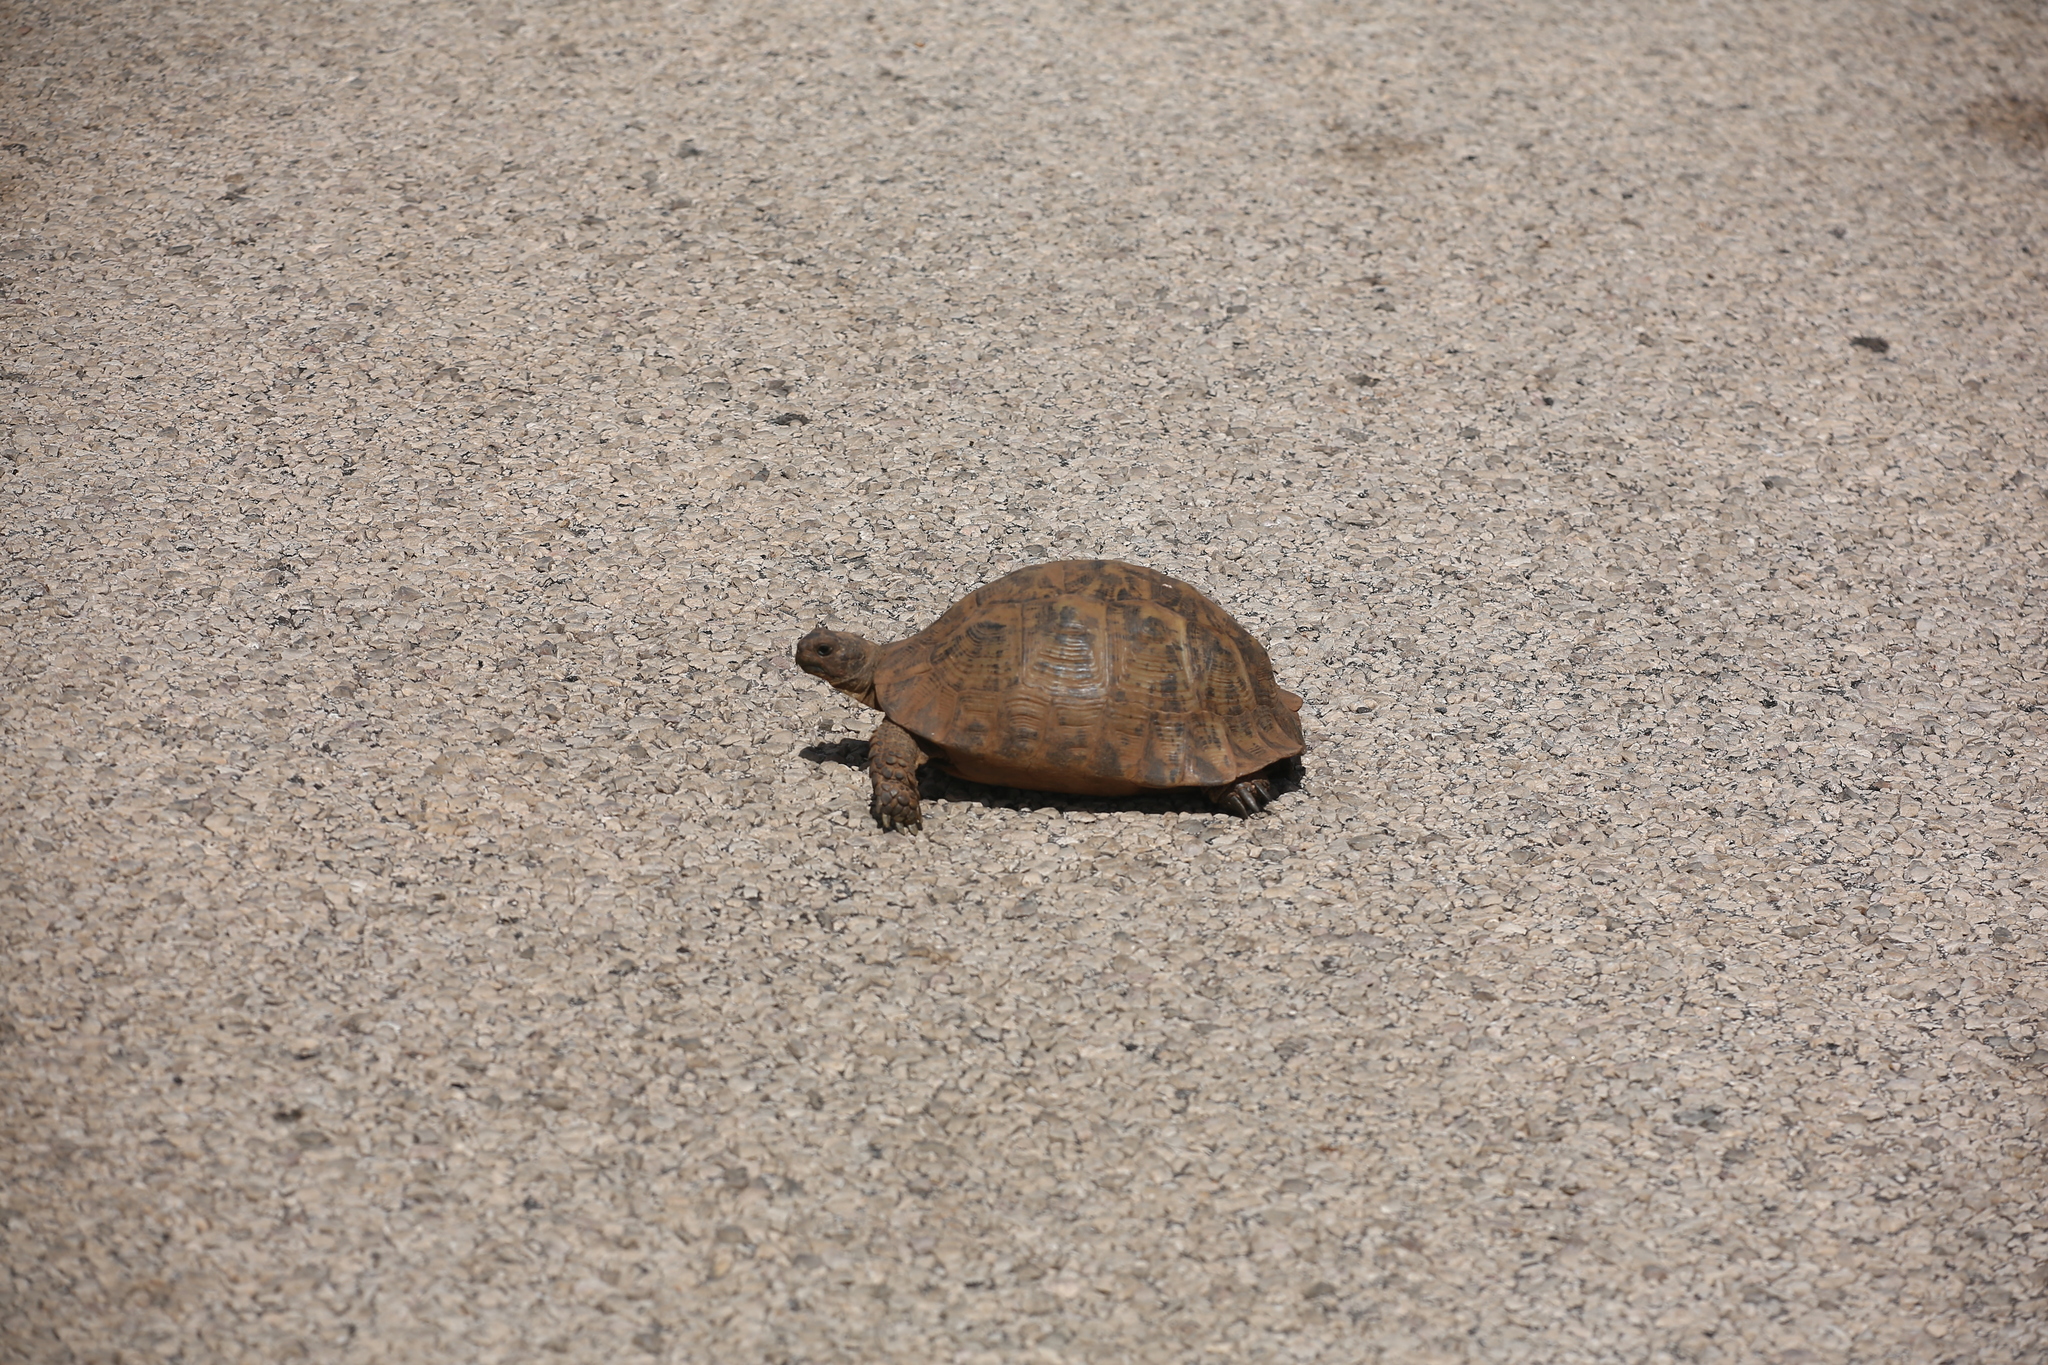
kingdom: Animalia
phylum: Chordata
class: Testudines
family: Testudinidae
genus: Testudo
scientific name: Testudo graeca
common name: Common tortoise
